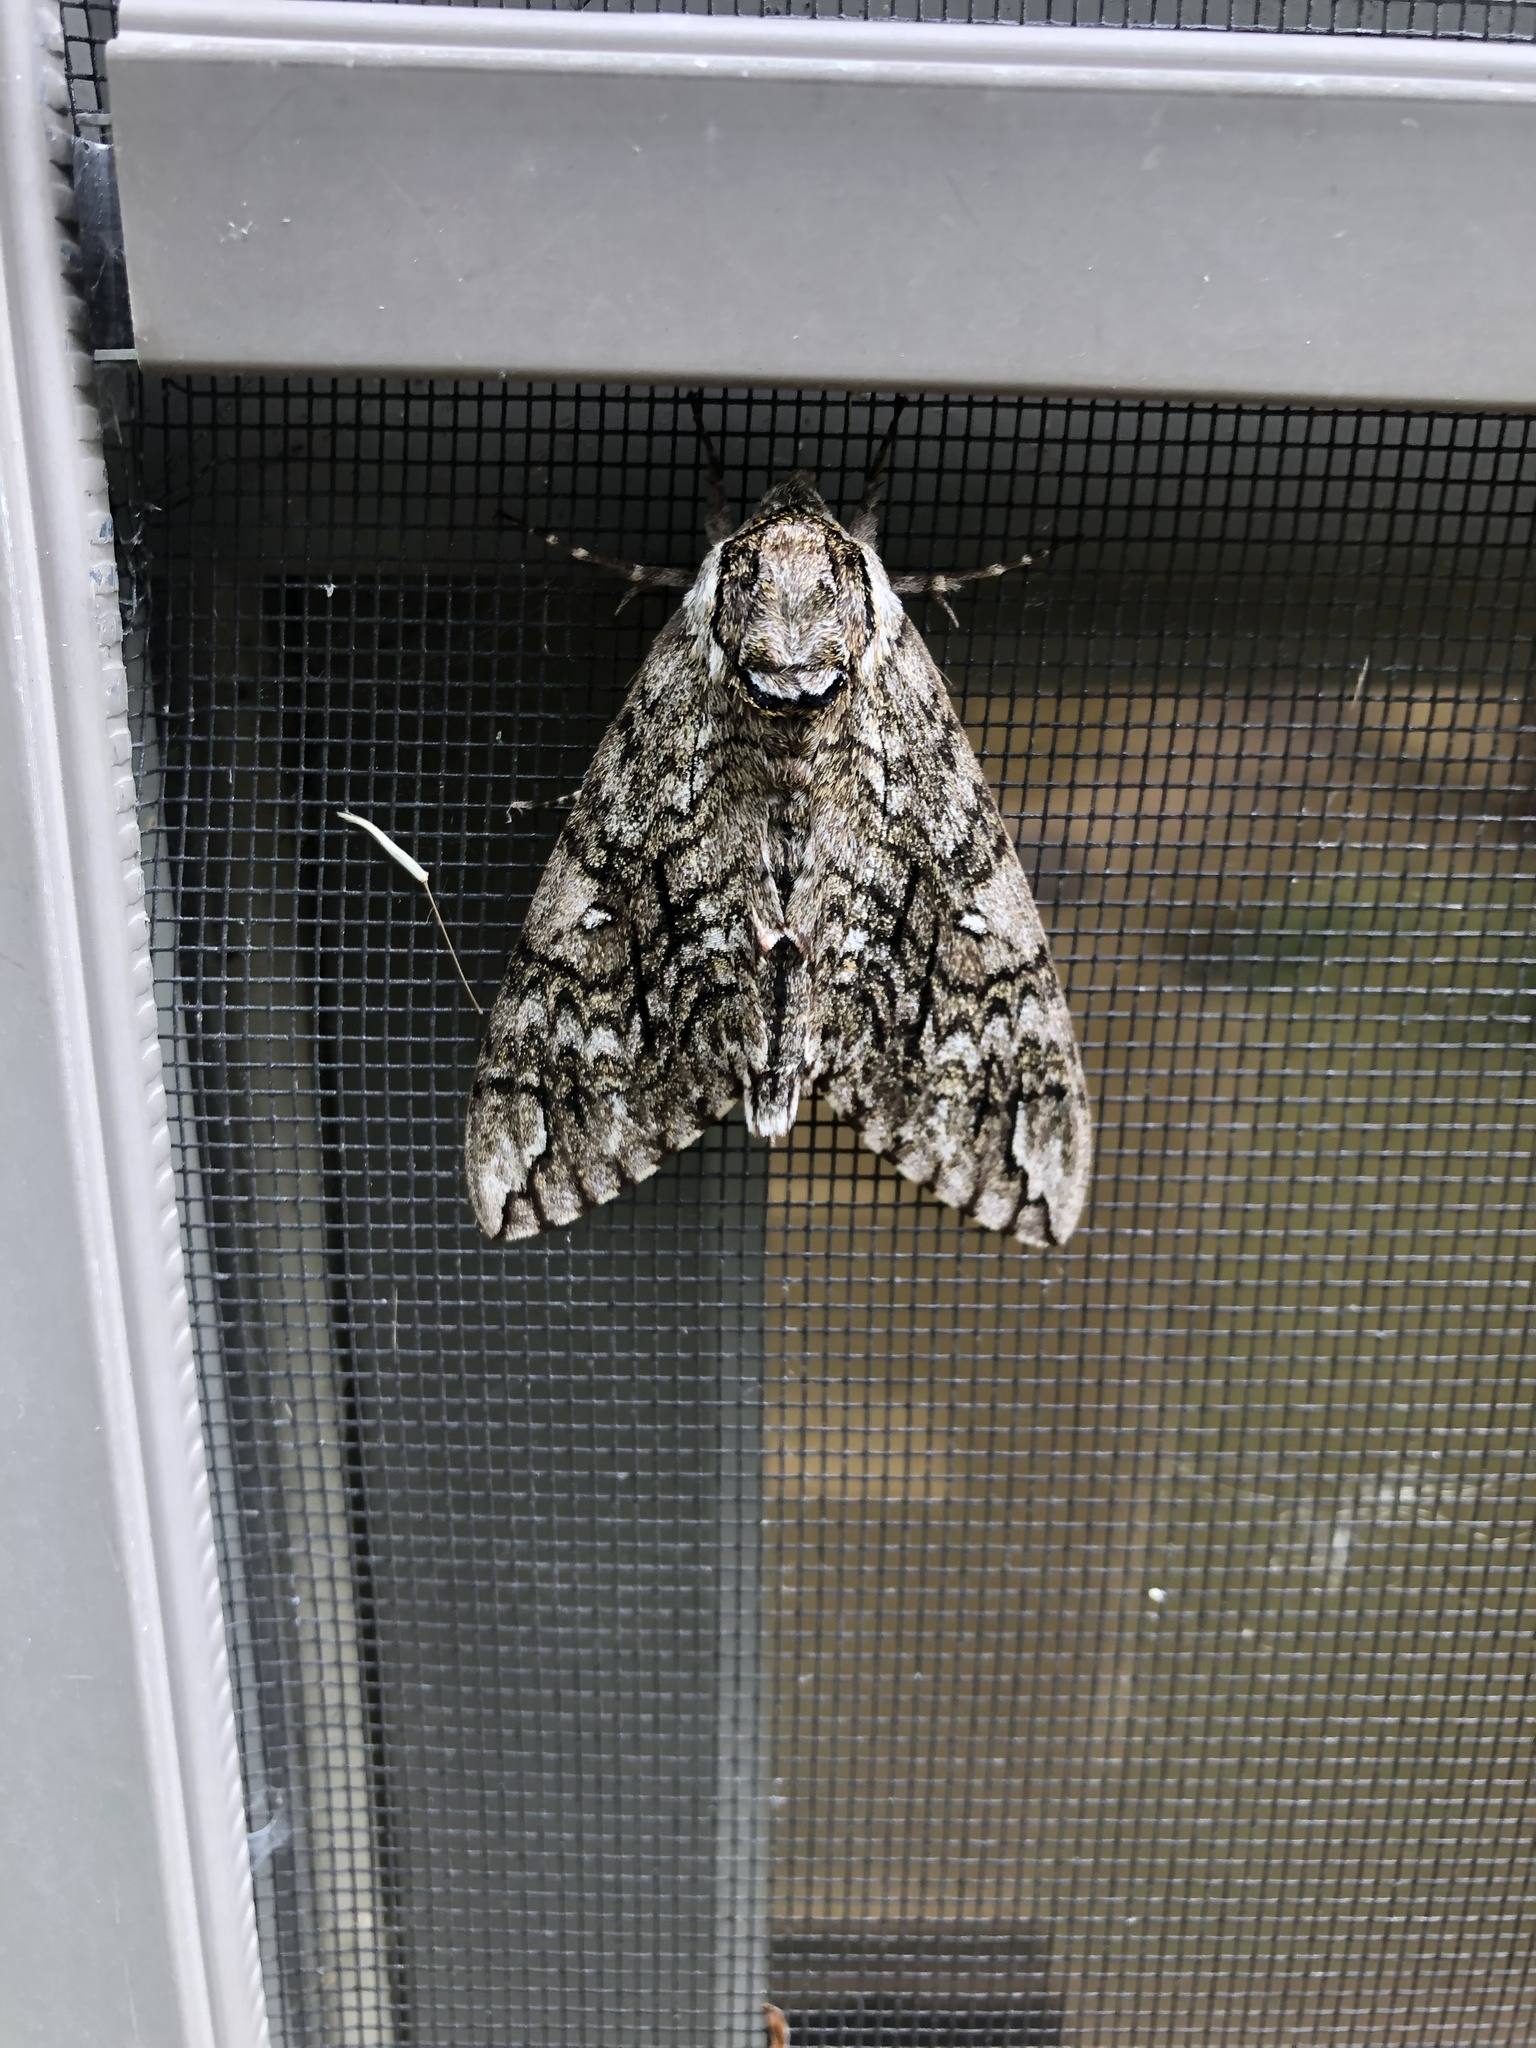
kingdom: Animalia
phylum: Arthropoda
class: Insecta
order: Lepidoptera
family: Sphingidae
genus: Ceratomia
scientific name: Ceratomia undulosa
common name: Waved sphinx
